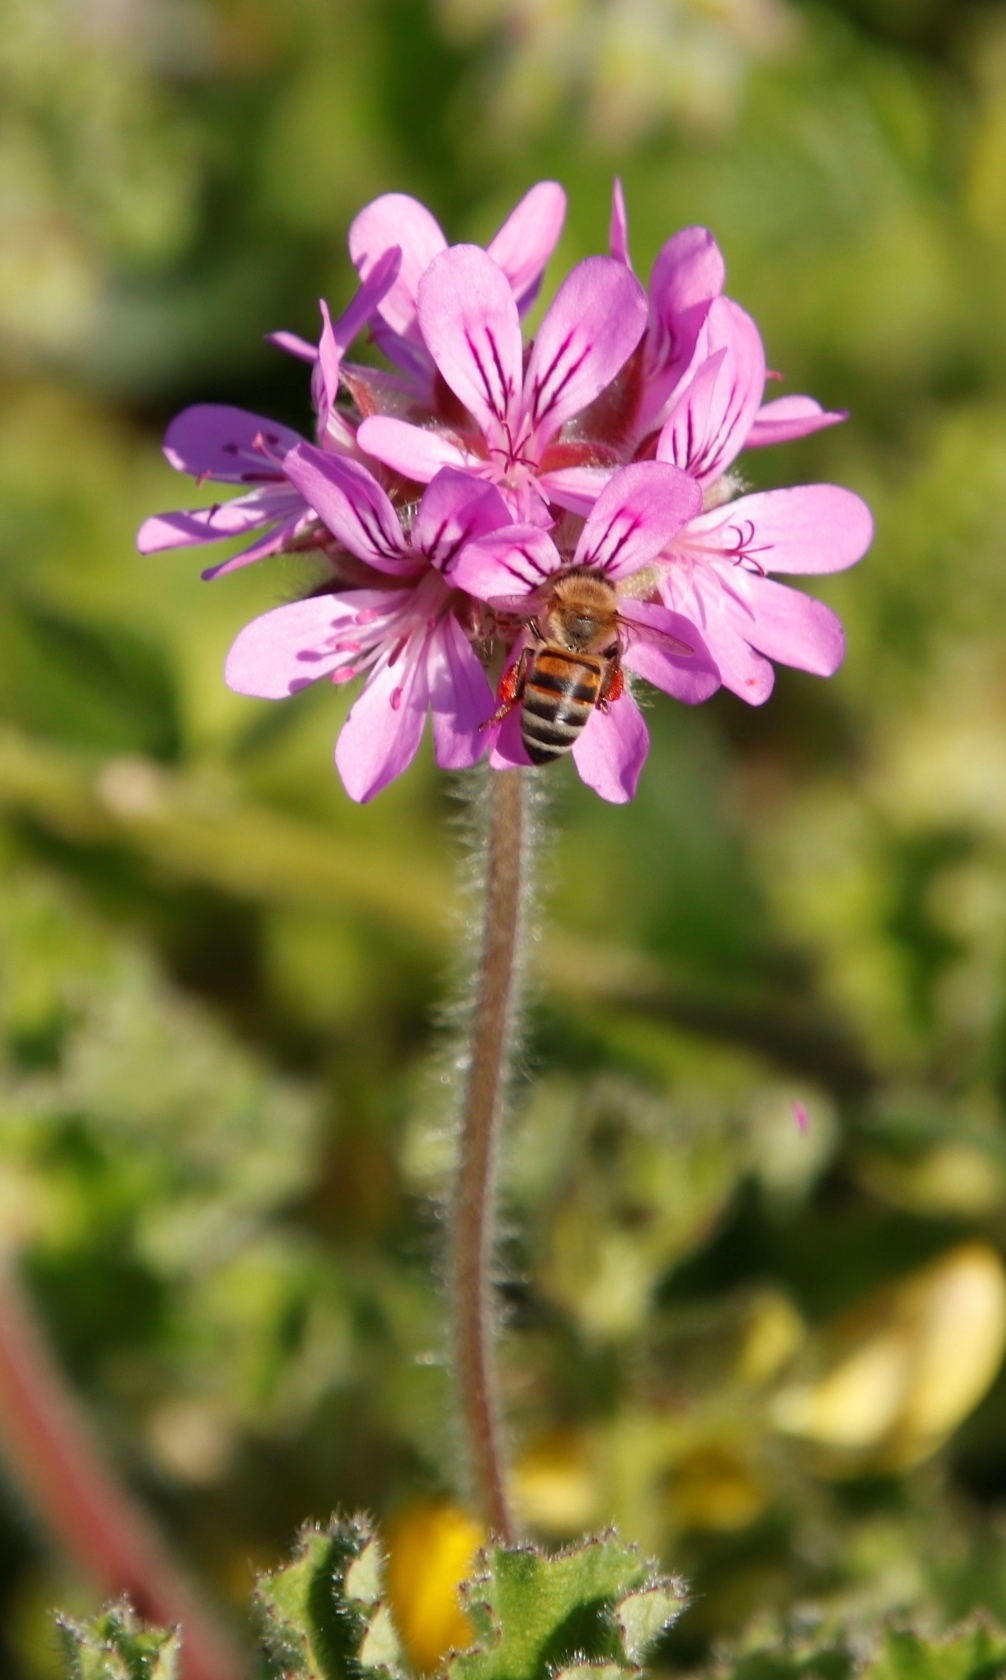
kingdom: Animalia
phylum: Arthropoda
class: Insecta
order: Hymenoptera
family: Apidae
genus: Apis
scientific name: Apis mellifera
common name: Honey bee
